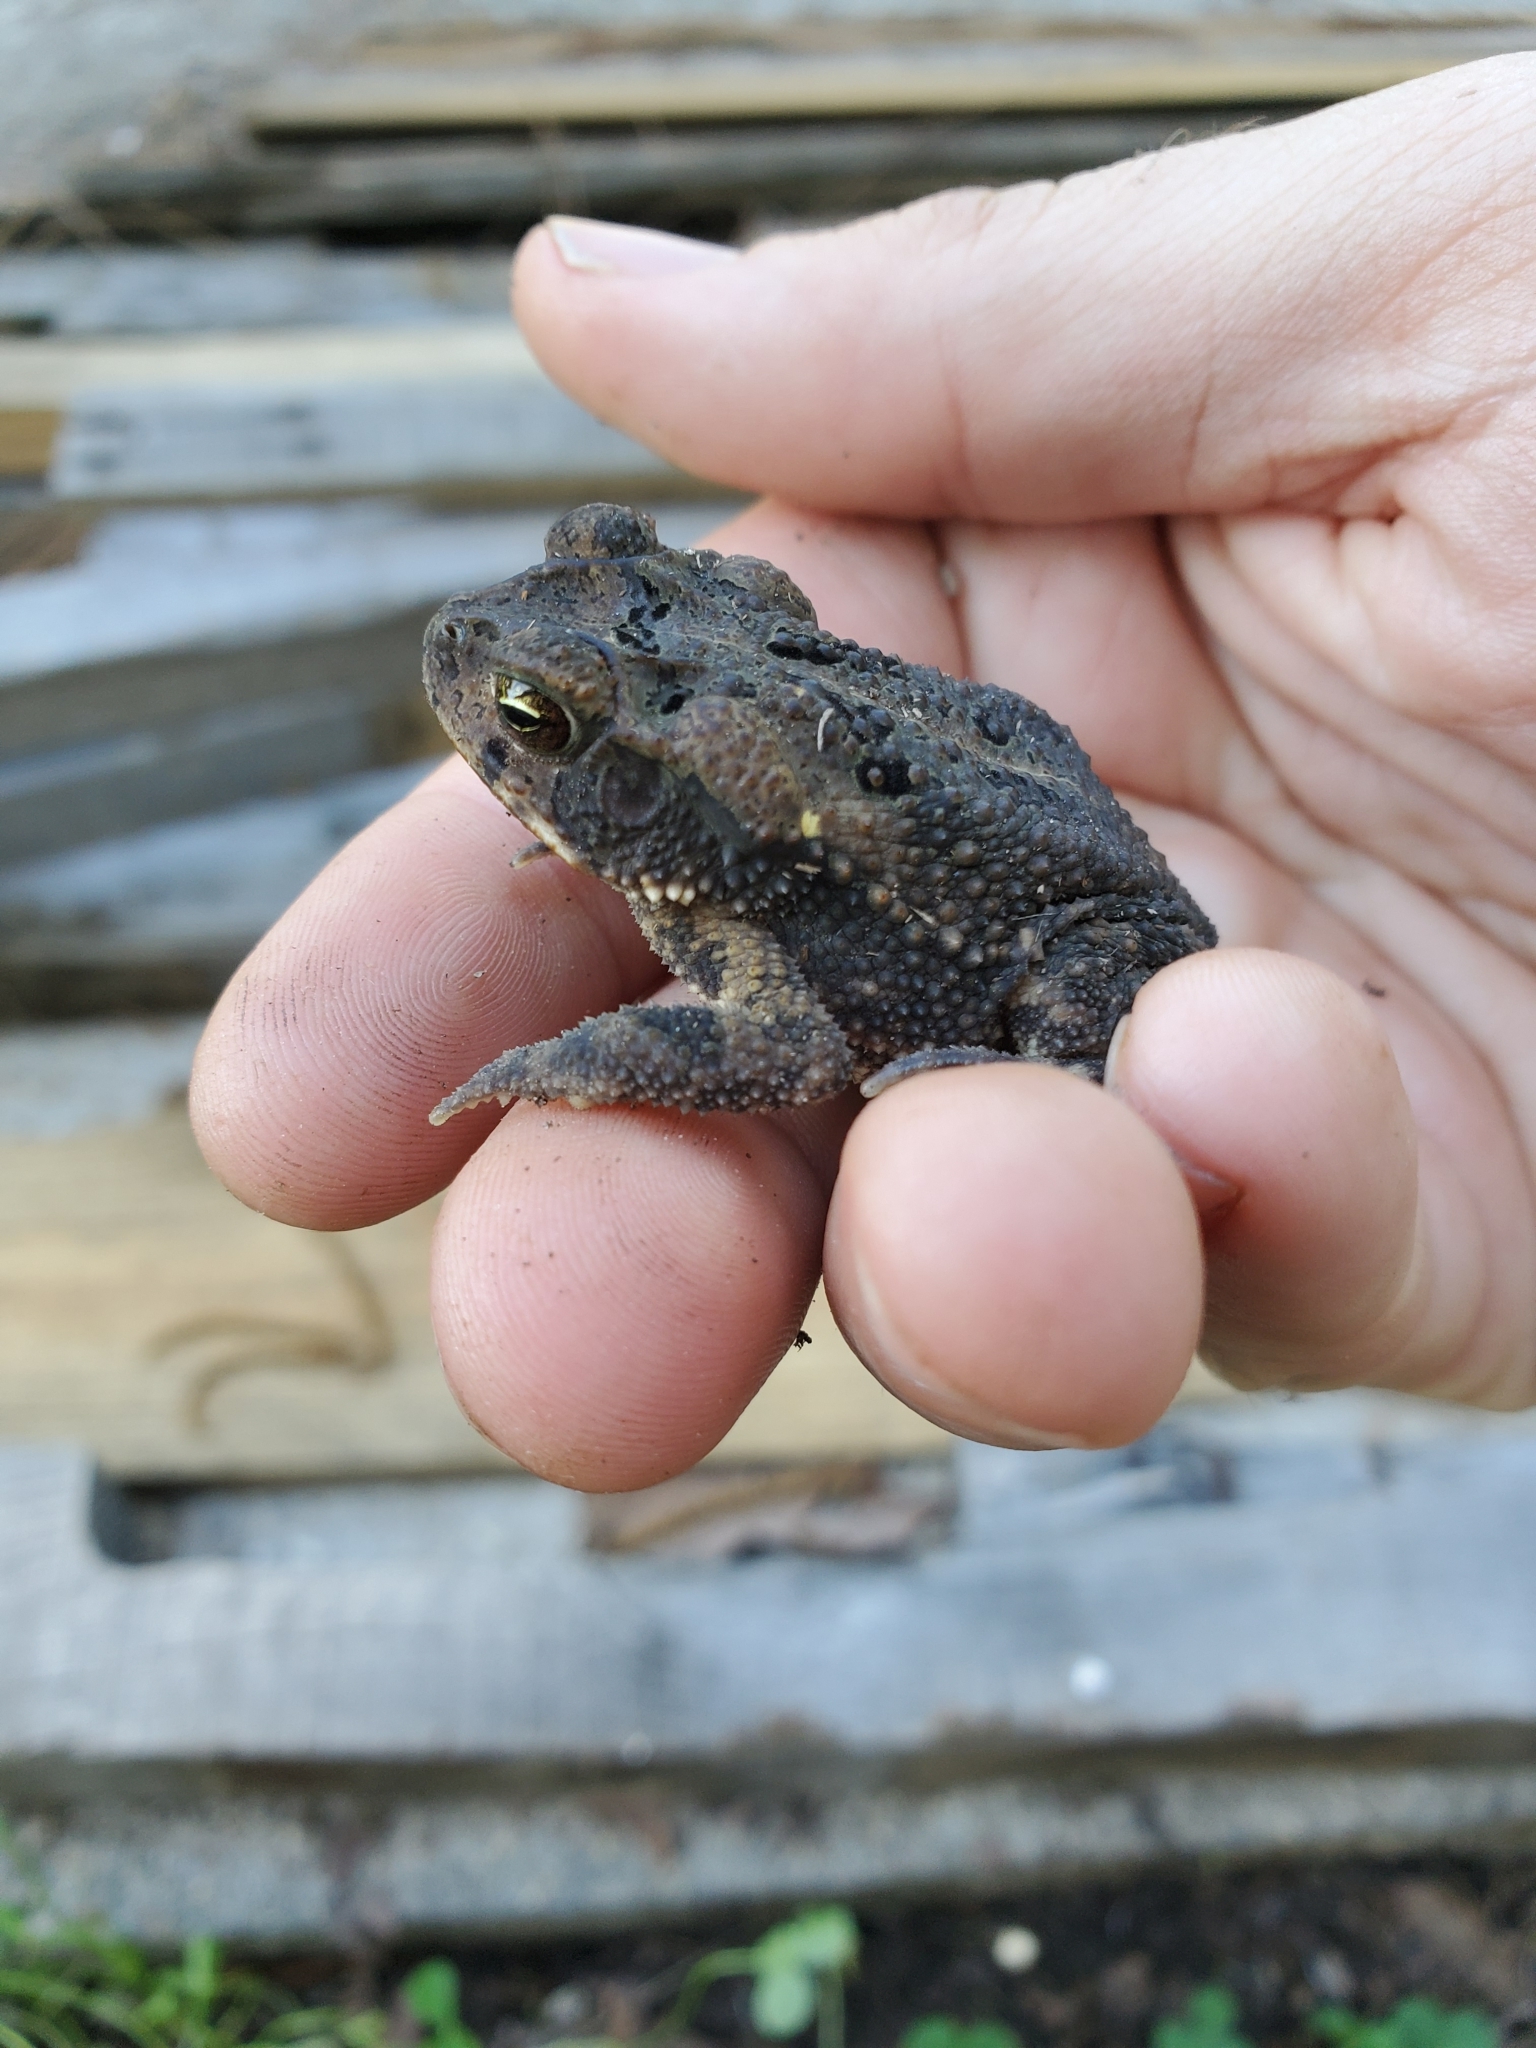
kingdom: Animalia
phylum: Chordata
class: Amphibia
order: Anura
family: Bufonidae
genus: Incilius
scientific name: Incilius nebulifer
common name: Gulf coast toad
